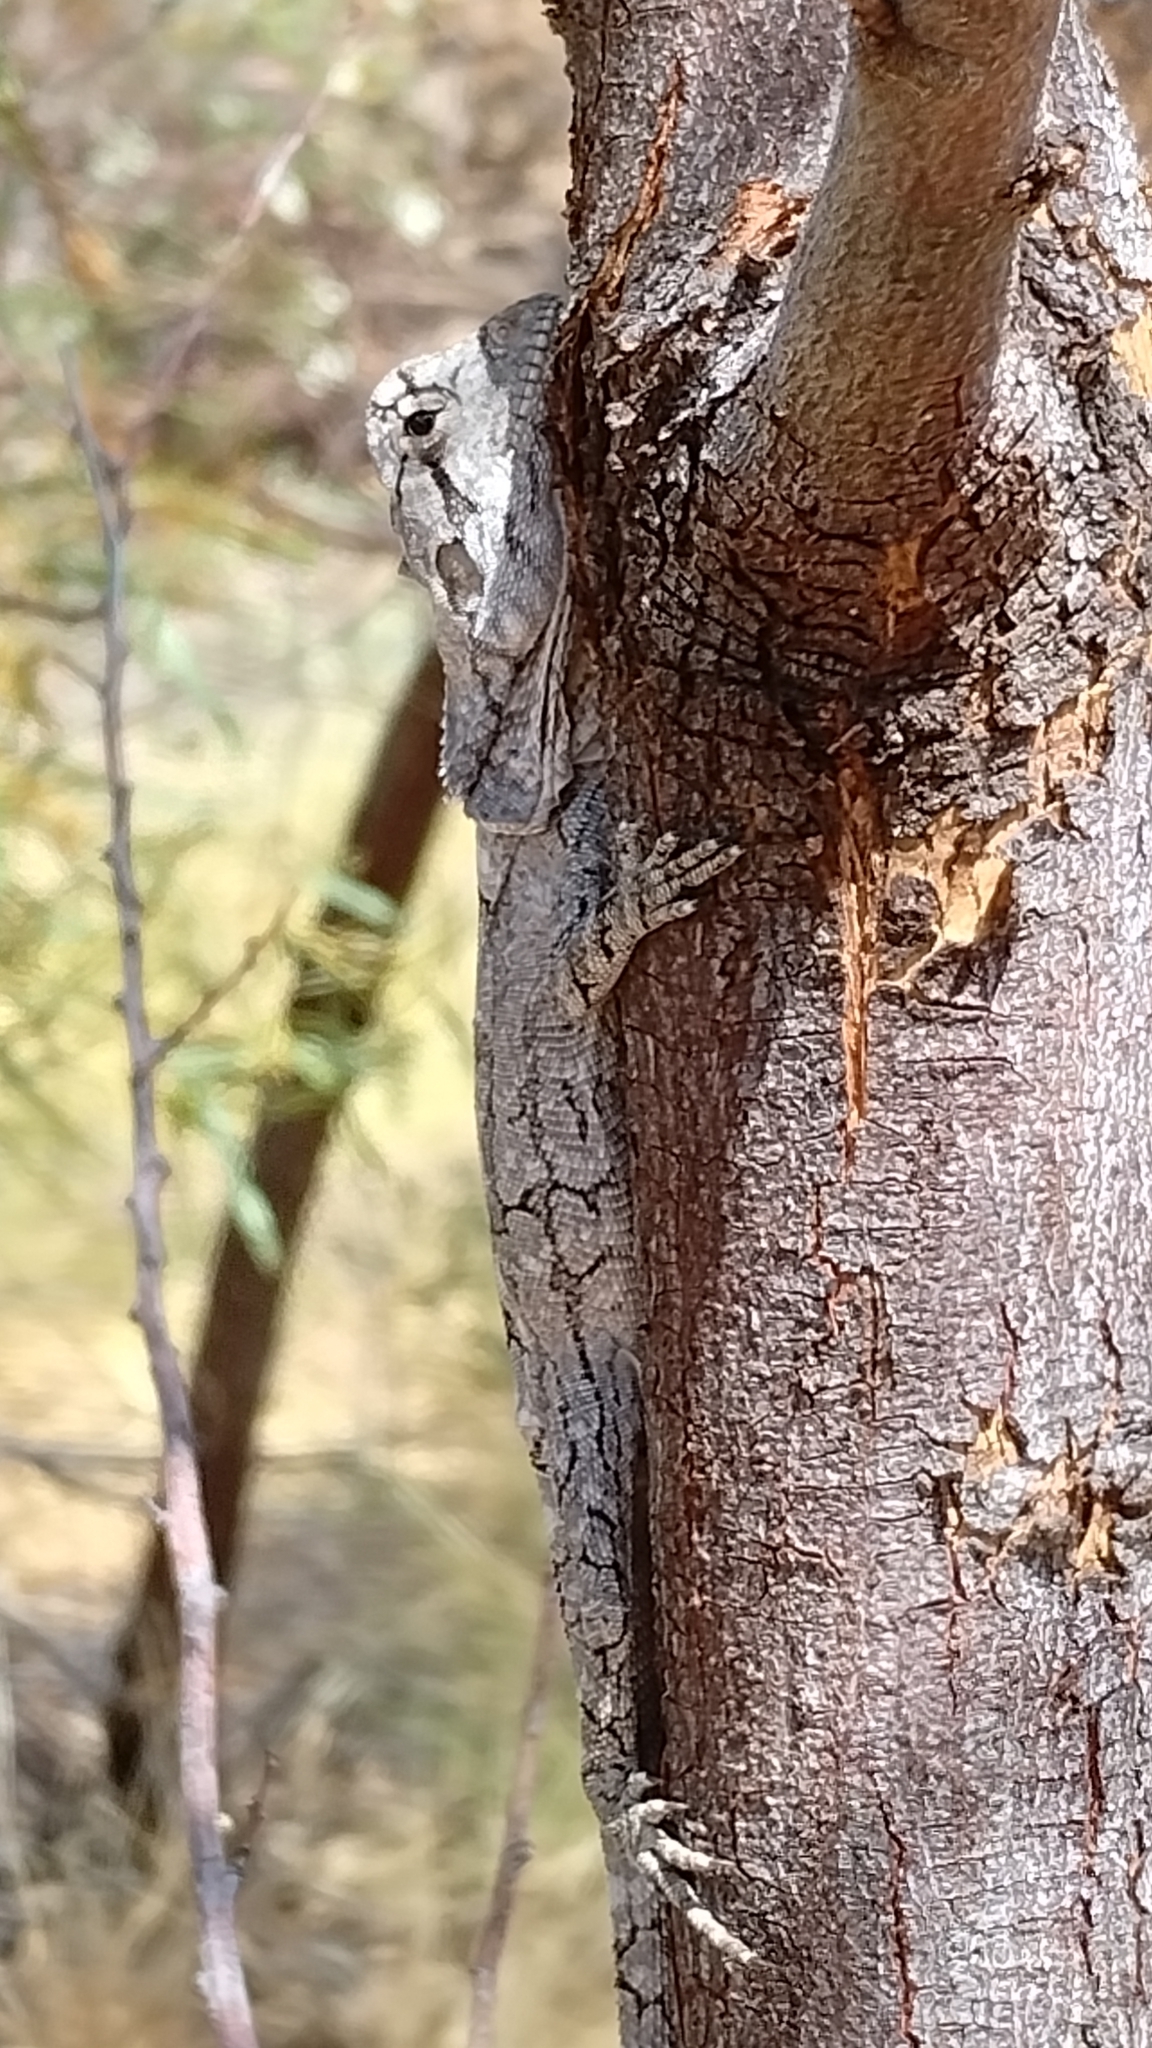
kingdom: Animalia
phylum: Chordata
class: Squamata
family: Agamidae
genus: Chlamydosaurus
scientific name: Chlamydosaurus kingii
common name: Frilled lizard
